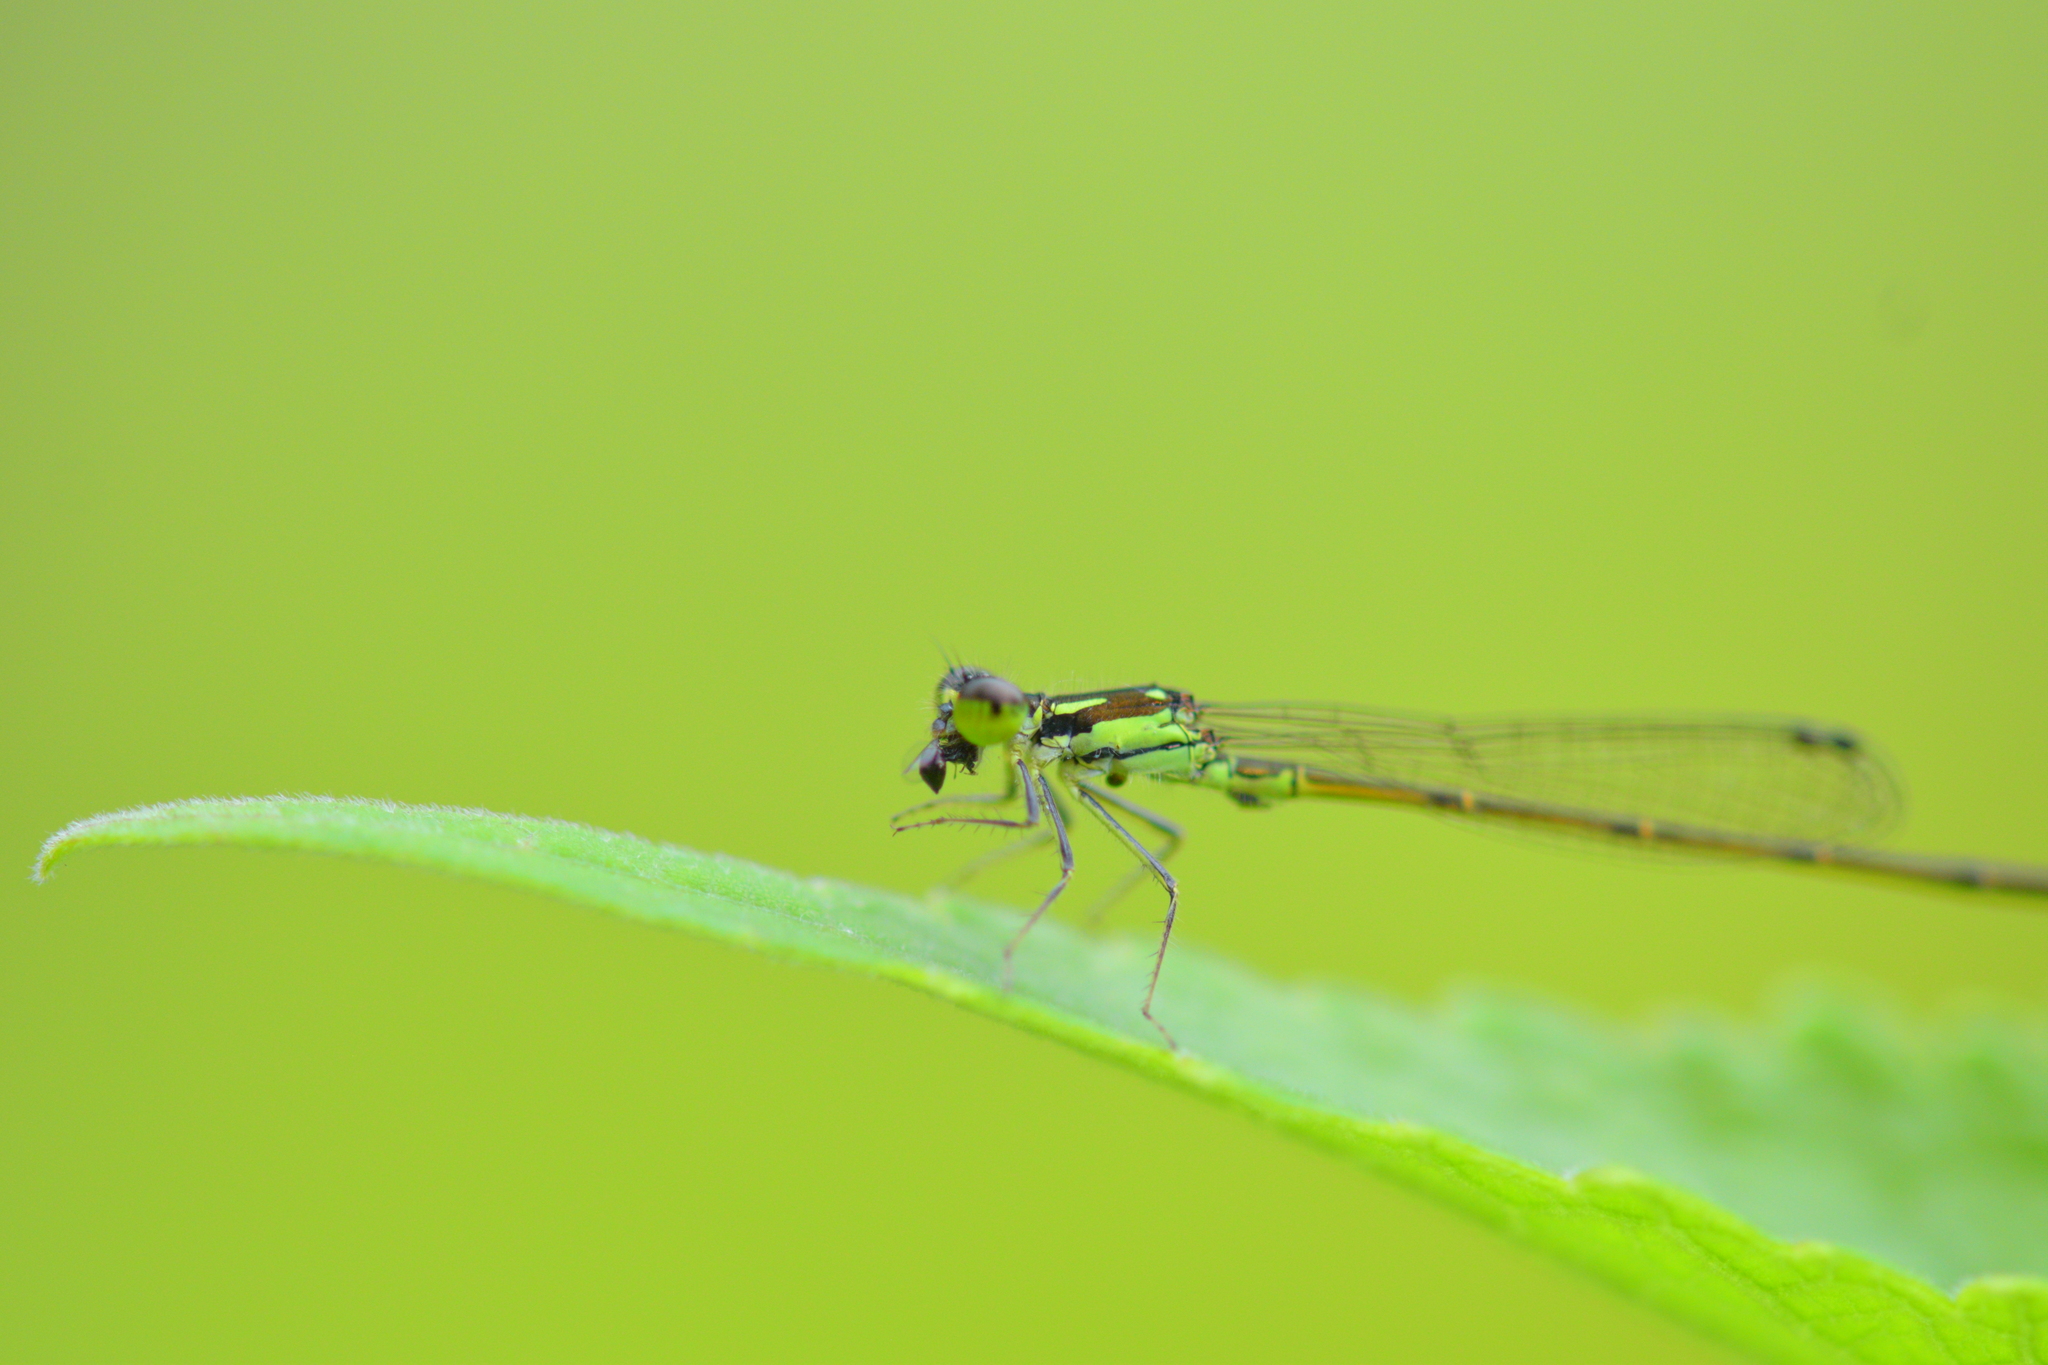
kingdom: Animalia
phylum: Arthropoda
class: Insecta
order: Odonata
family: Coenagrionidae
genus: Ischnura
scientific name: Ischnura posita
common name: Fragile forktail
